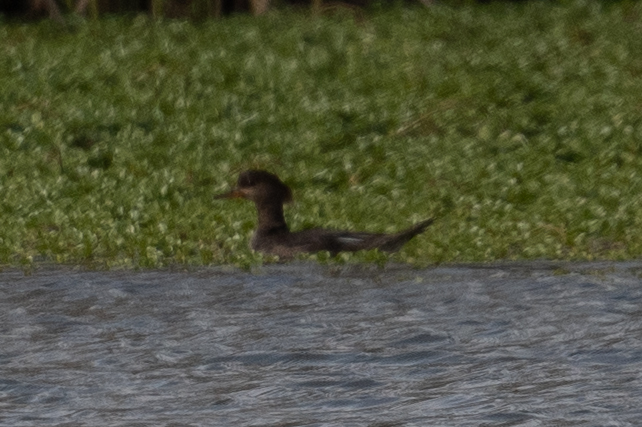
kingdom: Animalia
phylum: Chordata
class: Aves
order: Anseriformes
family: Anatidae
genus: Lophodytes
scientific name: Lophodytes cucullatus
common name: Hooded merganser
